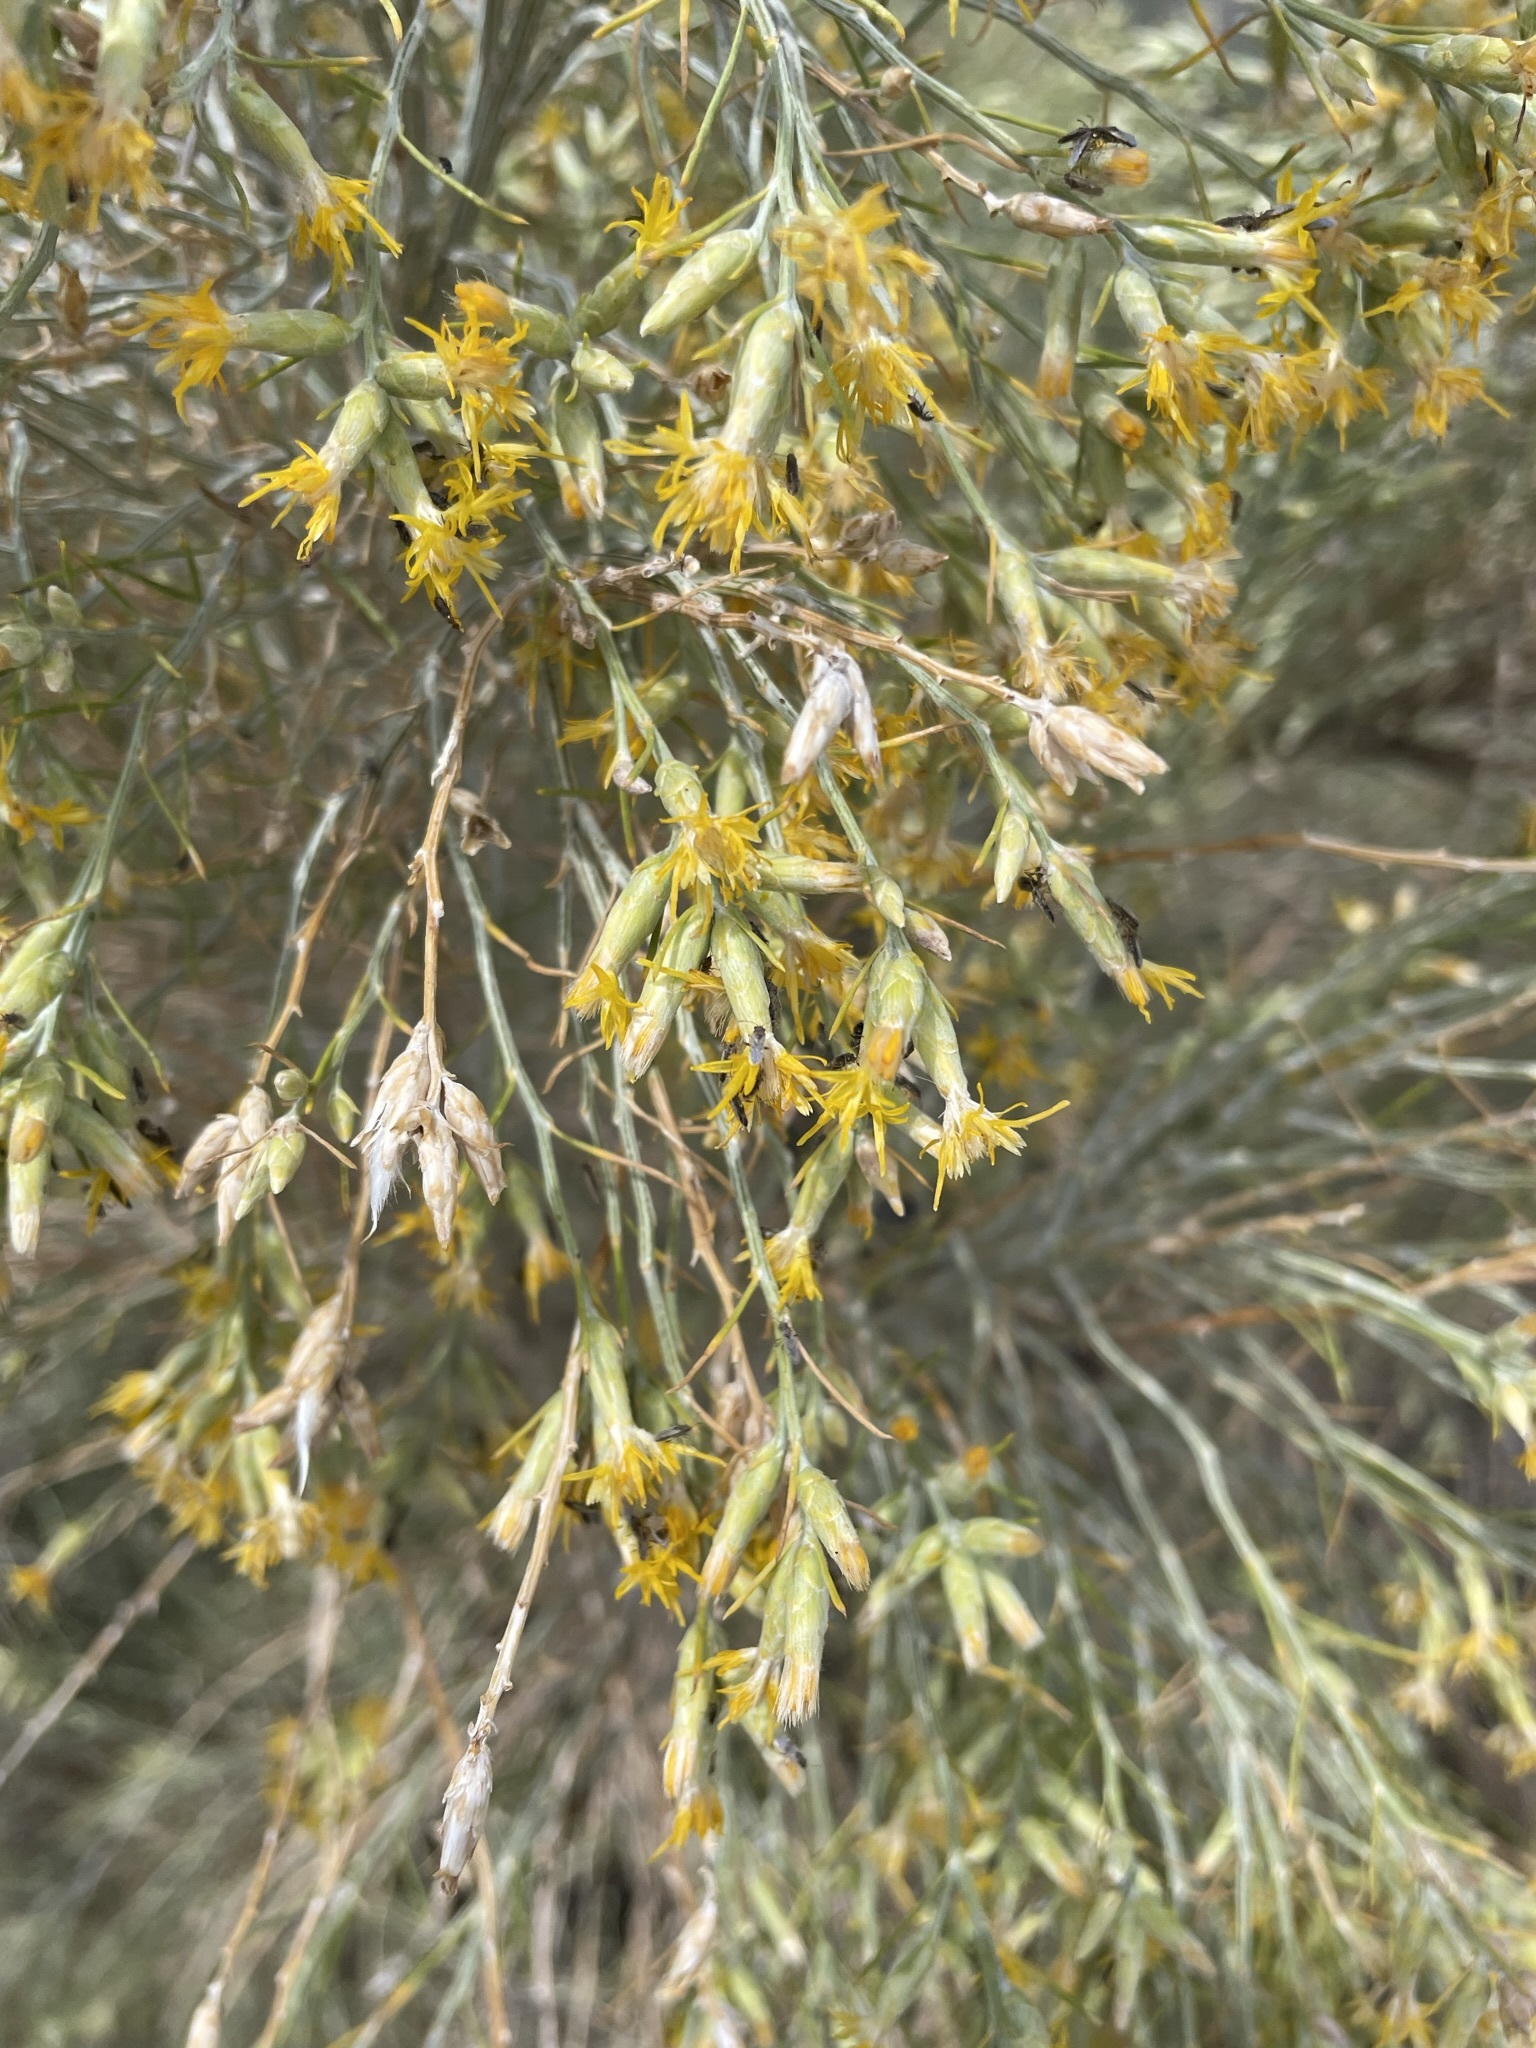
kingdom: Plantae
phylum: Tracheophyta
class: Magnoliopsida
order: Asterales
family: Asteraceae
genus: Lepidospartum
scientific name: Lepidospartum latisquamum
